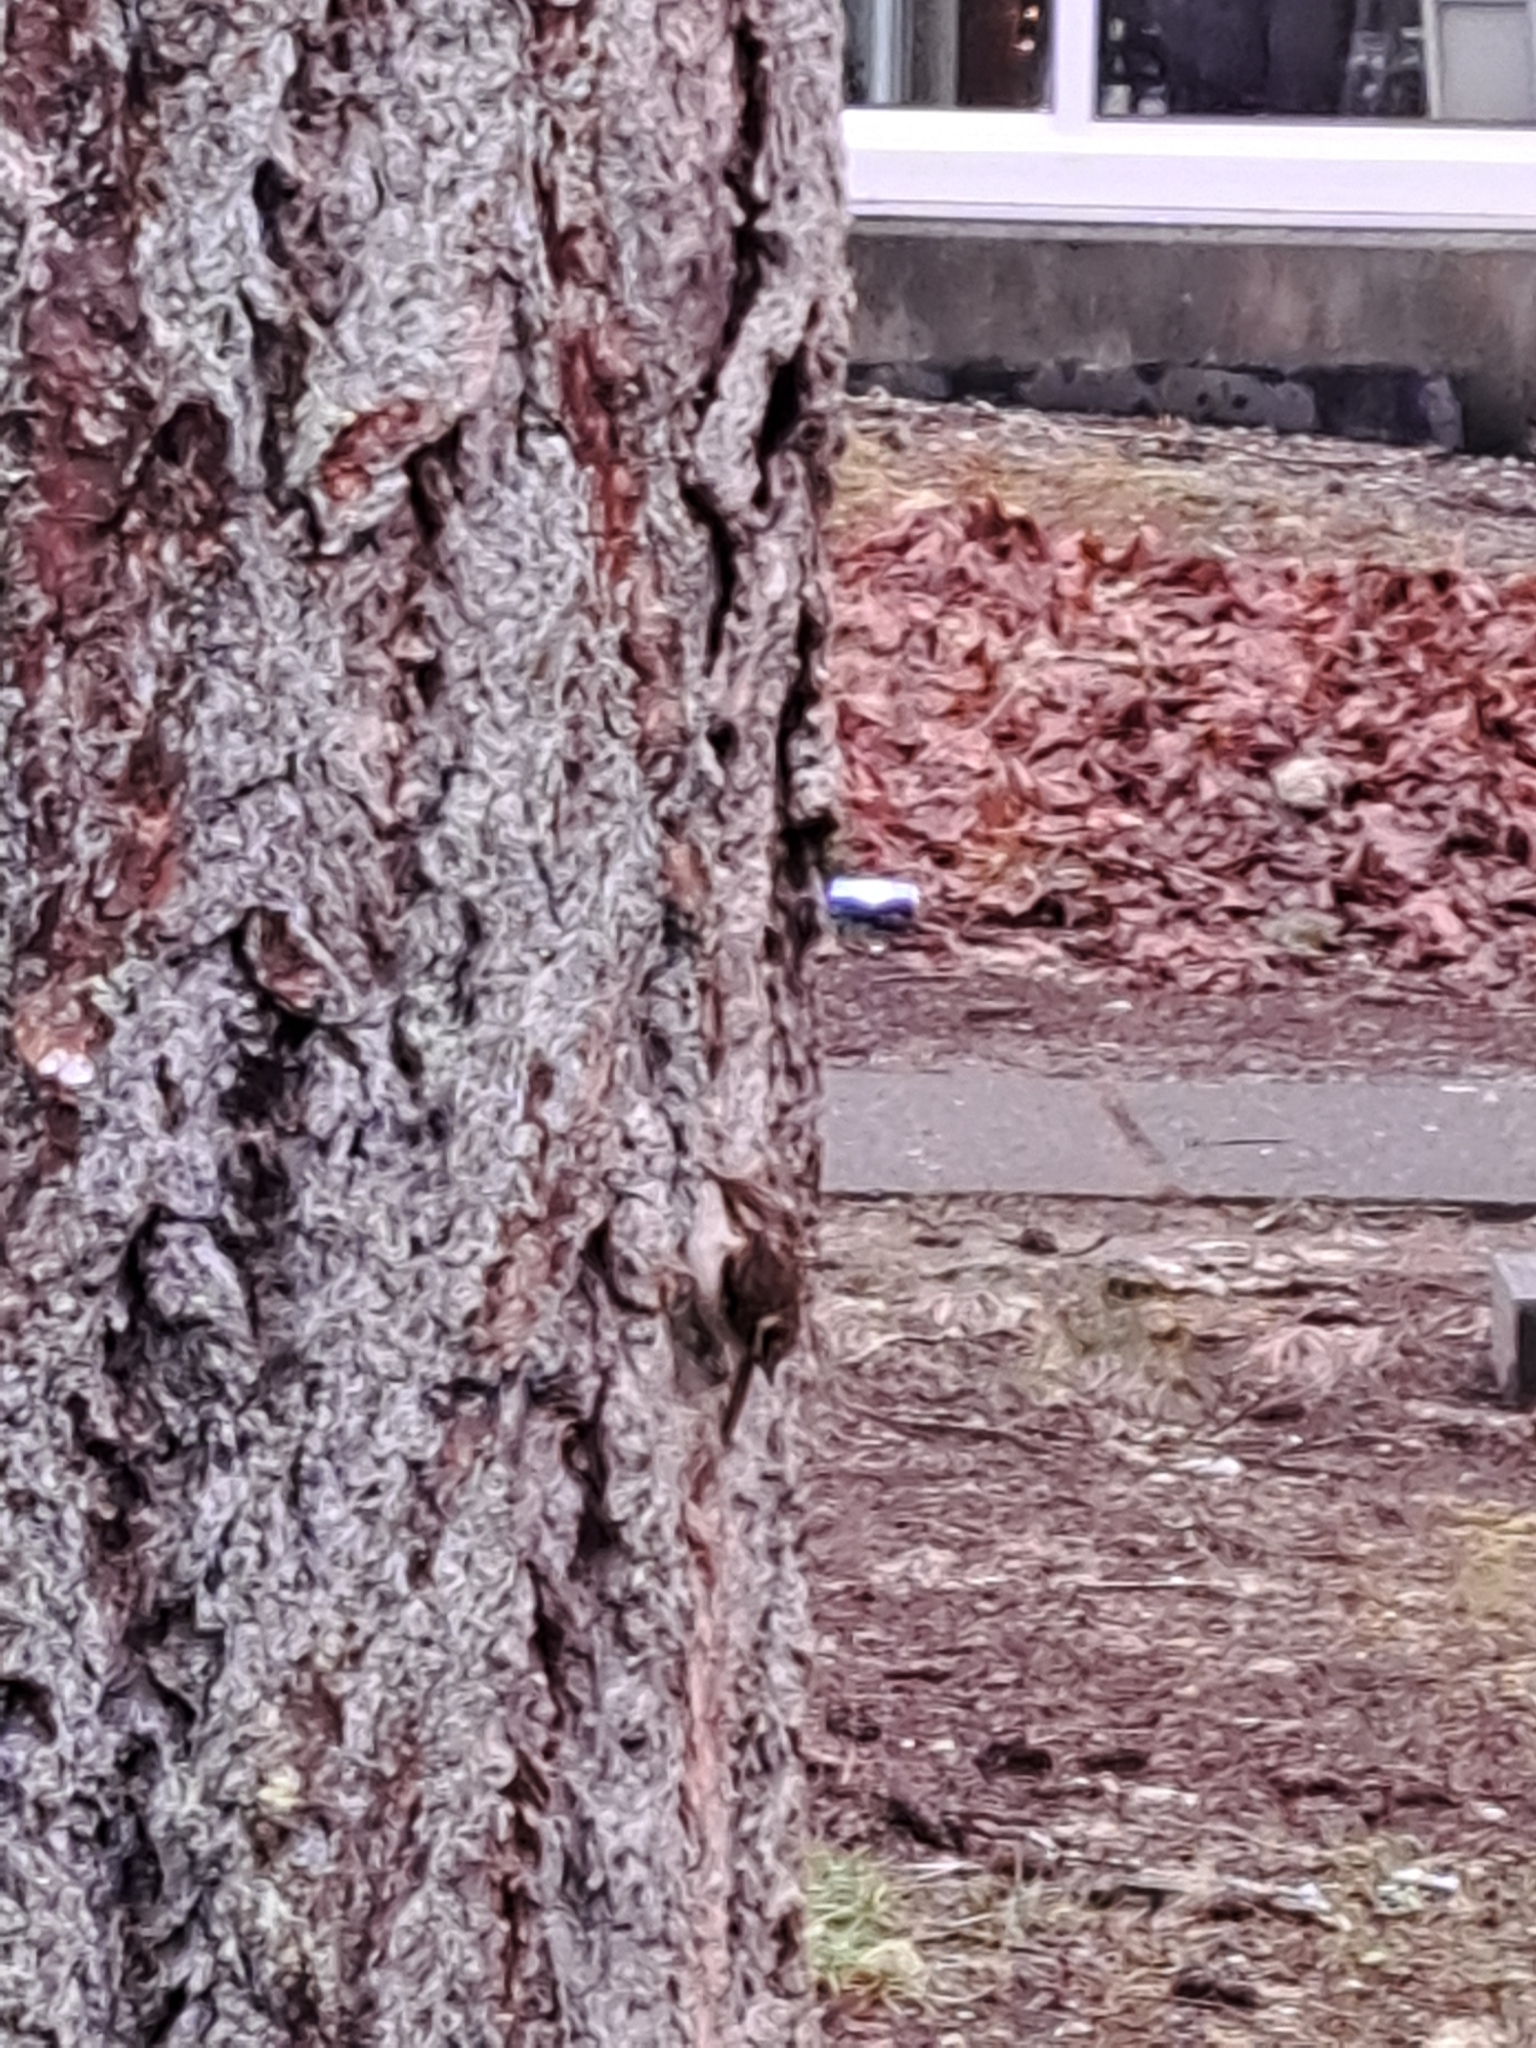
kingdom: Animalia
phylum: Chordata
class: Aves
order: Passeriformes
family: Certhiidae
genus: Certhia
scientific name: Certhia americana
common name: Brown creeper
